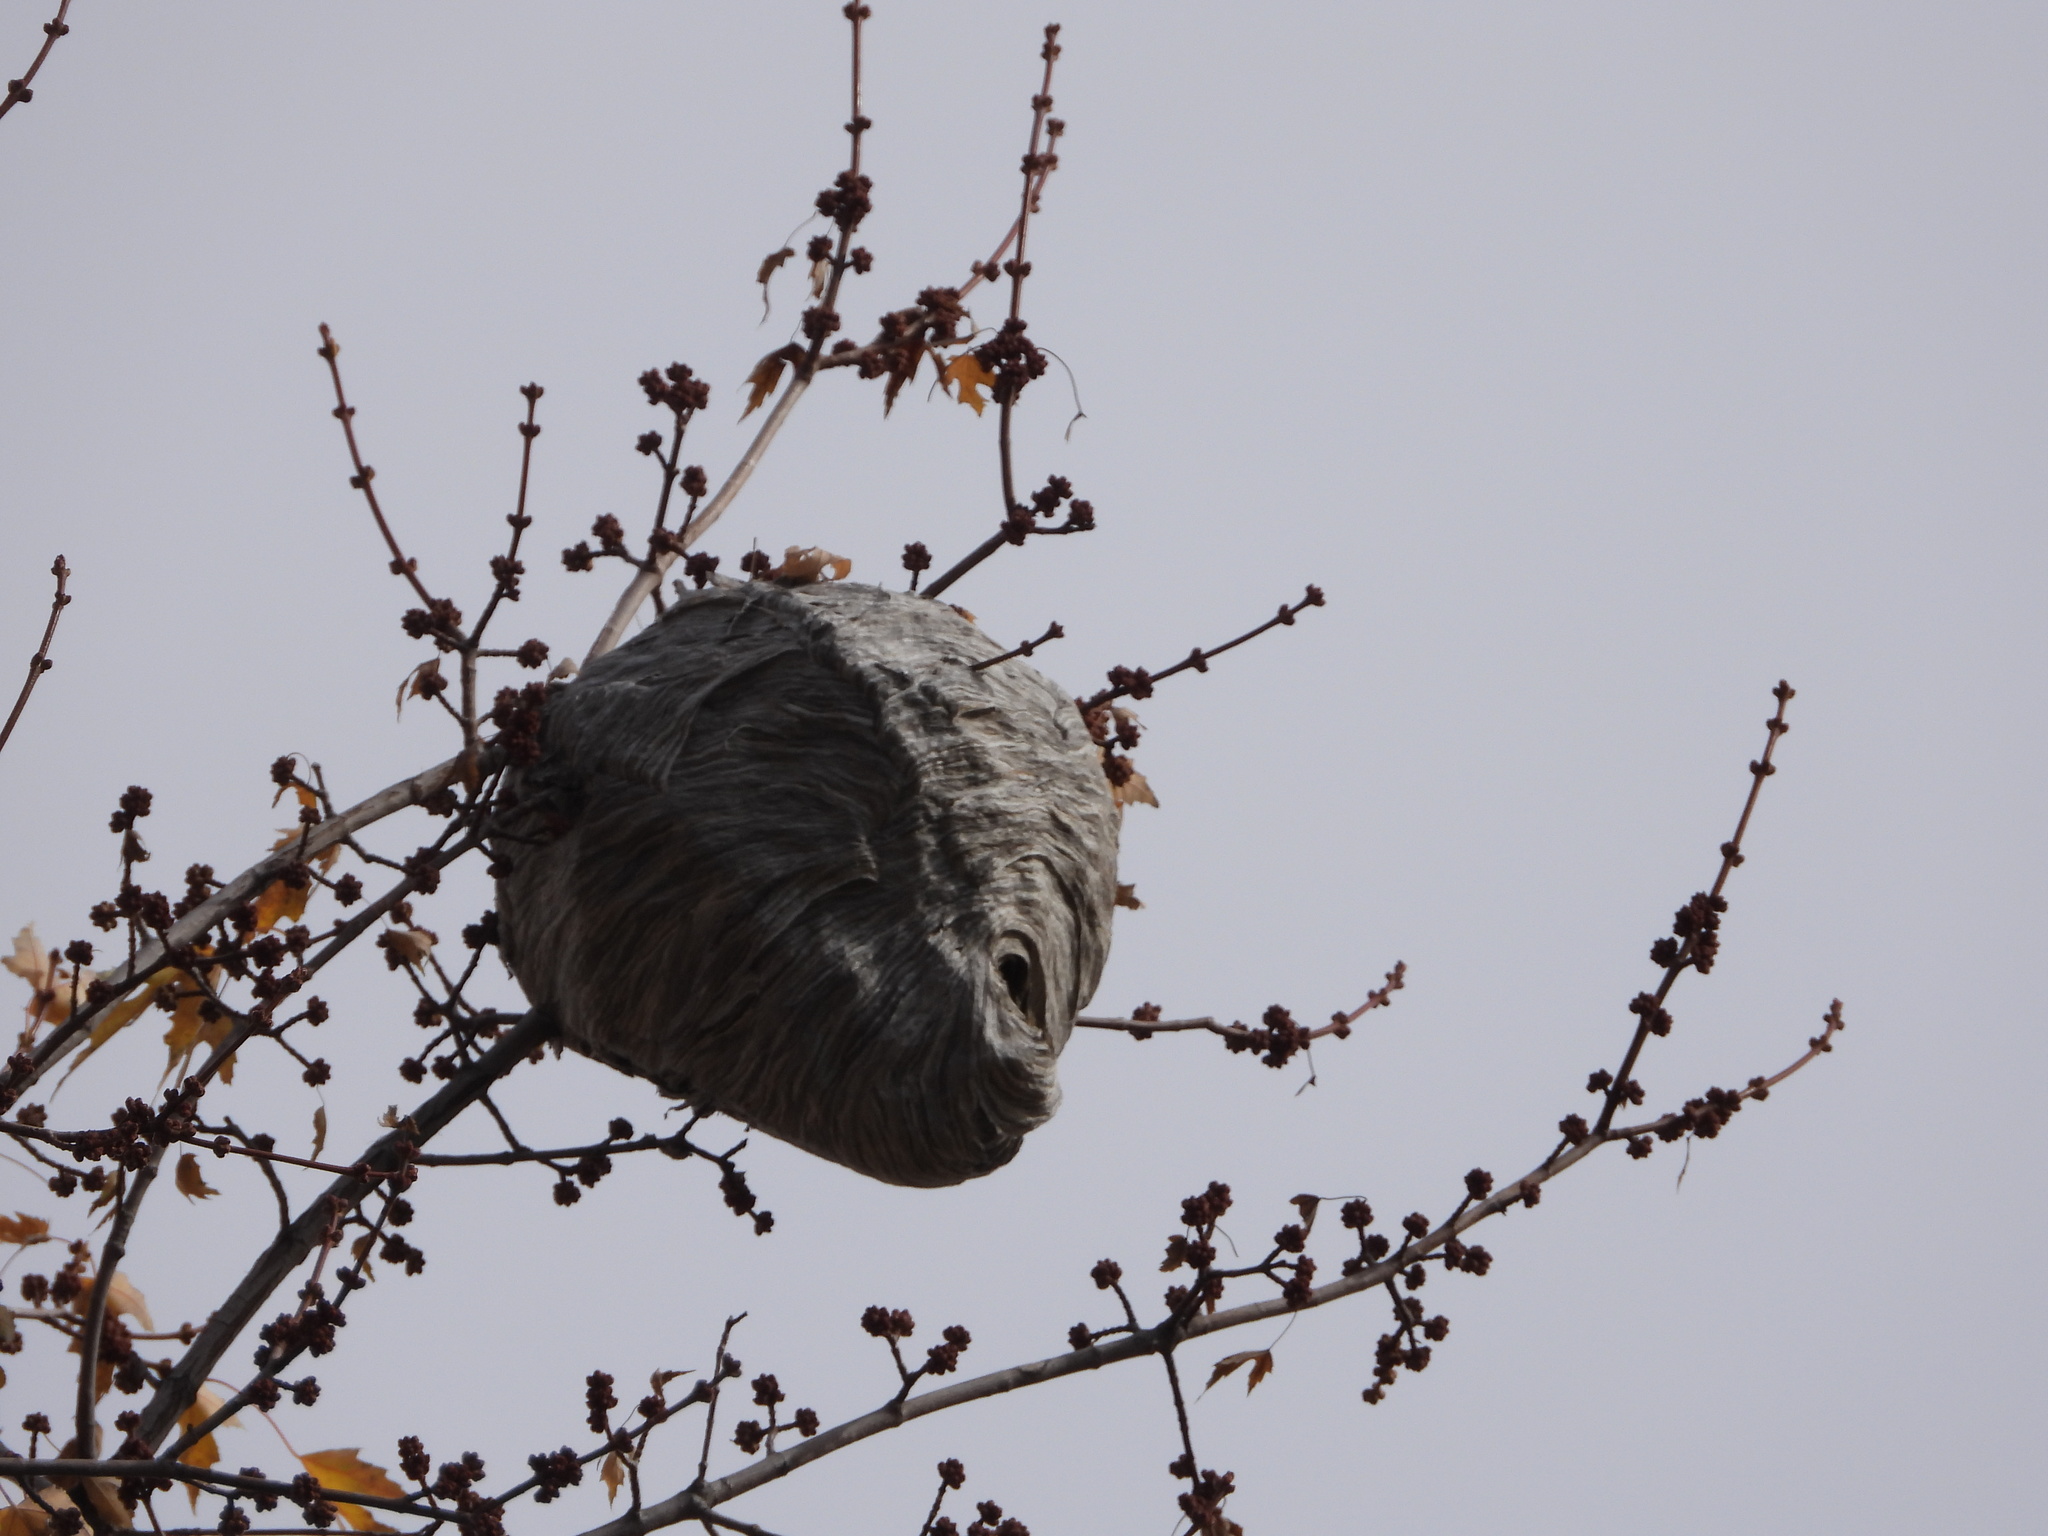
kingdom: Animalia
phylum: Arthropoda
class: Insecta
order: Hymenoptera
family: Vespidae
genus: Dolichovespula
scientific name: Dolichovespula
